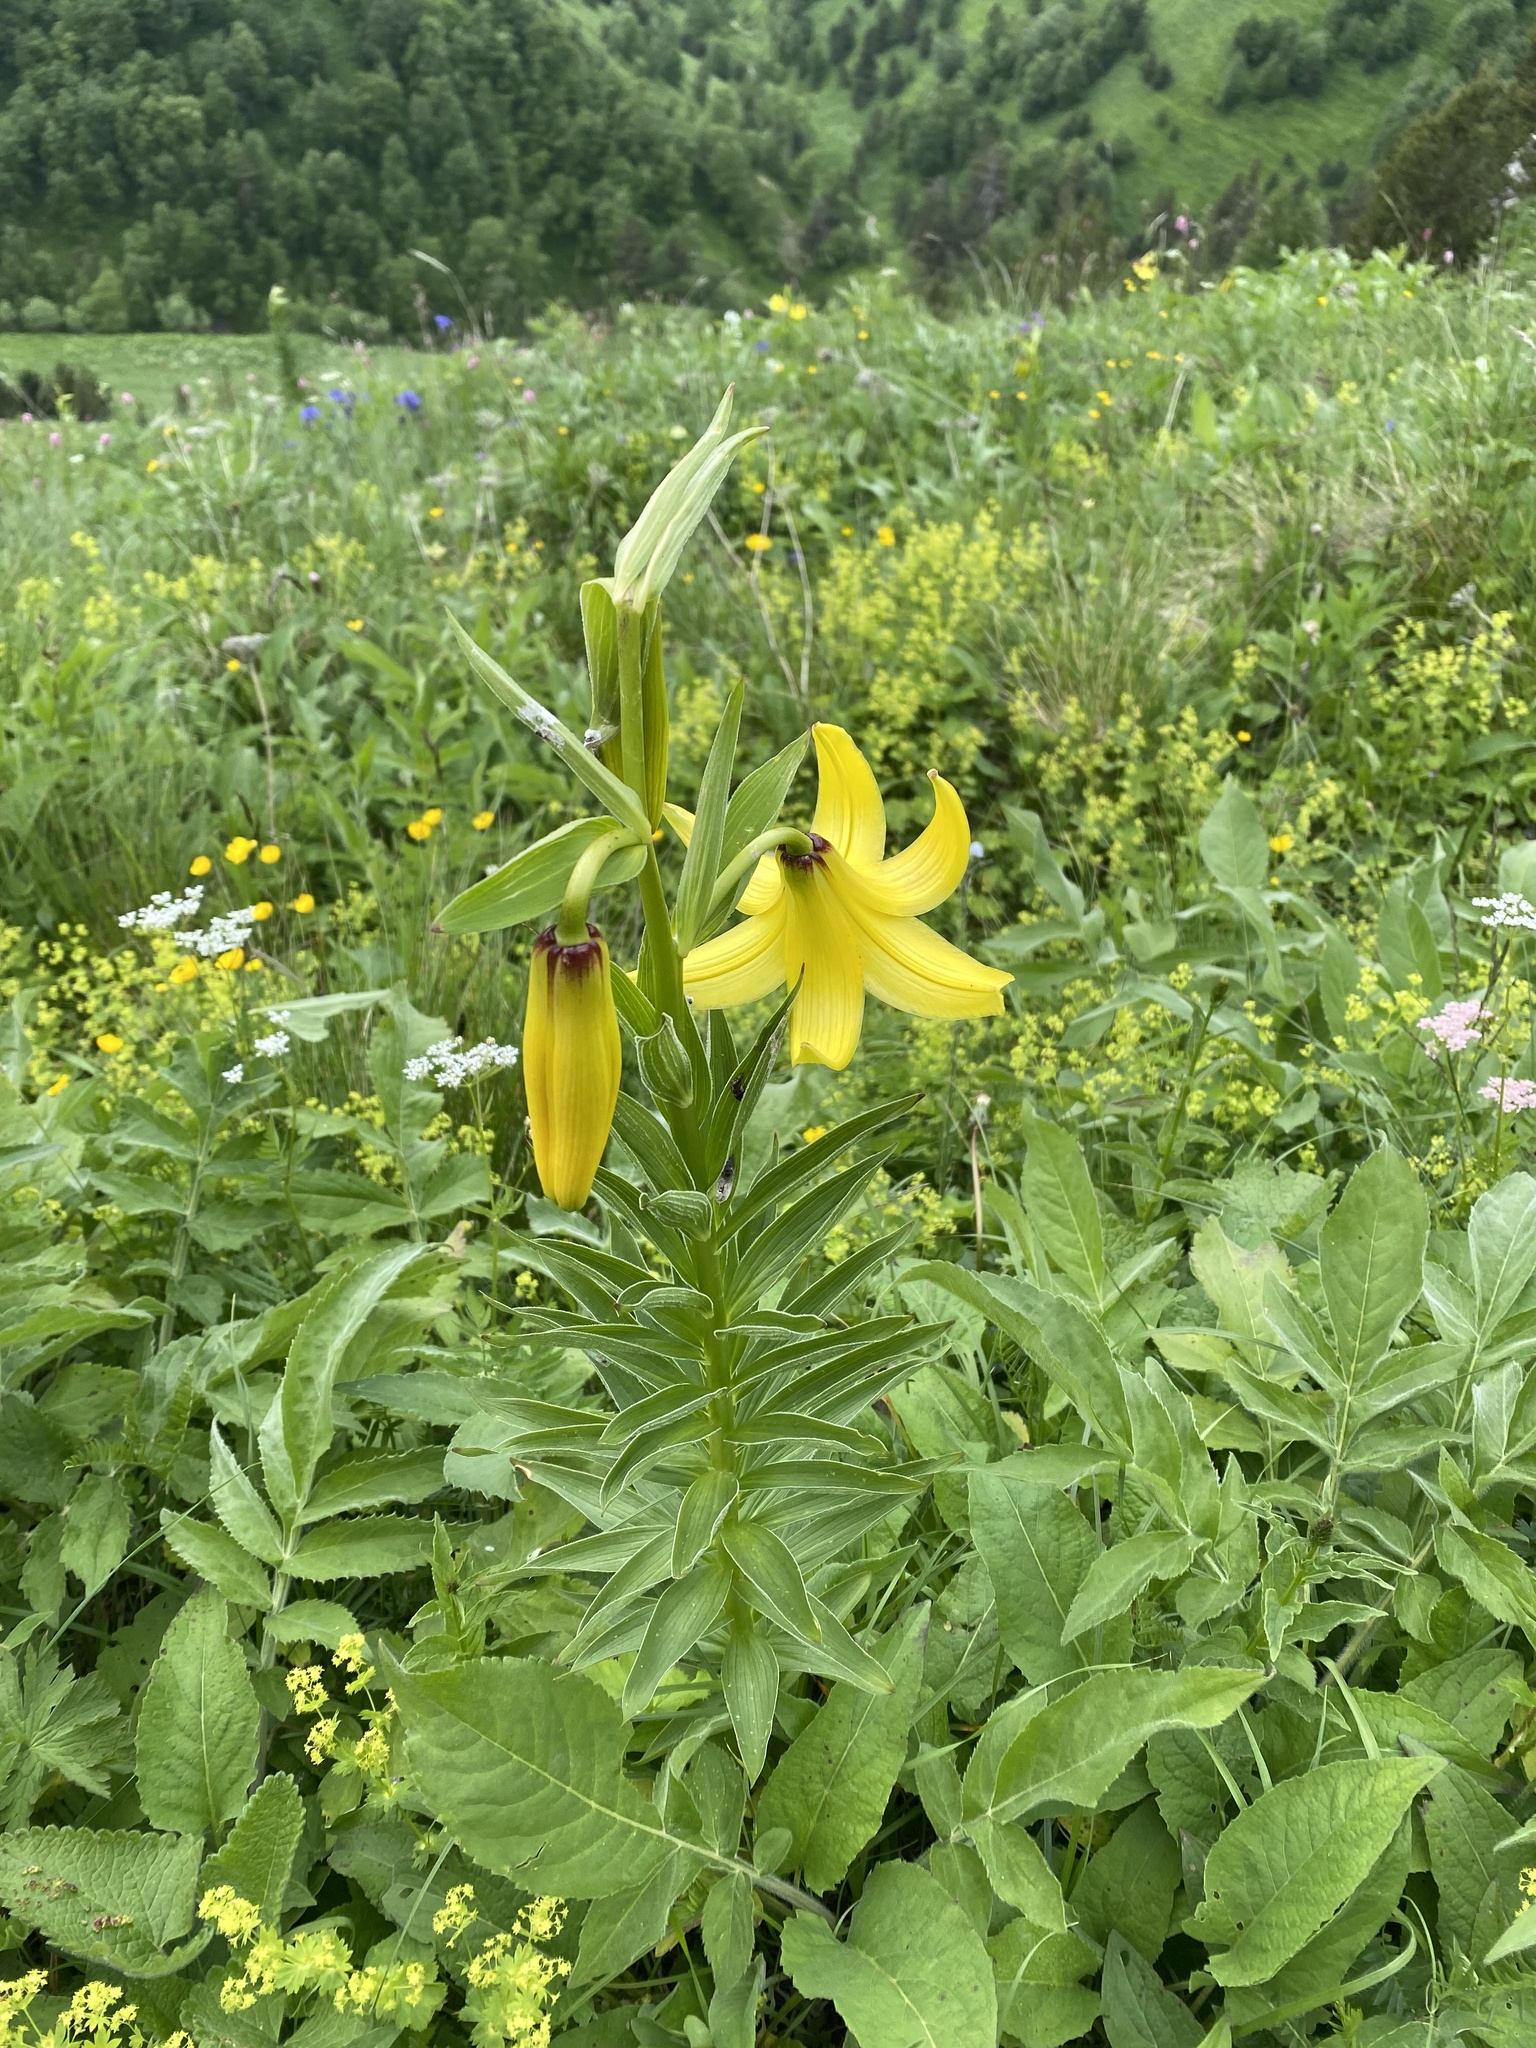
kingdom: Plantae
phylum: Tracheophyta
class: Liliopsida
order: Liliales
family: Liliaceae
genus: Lilium
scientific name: Lilium monadelphum
